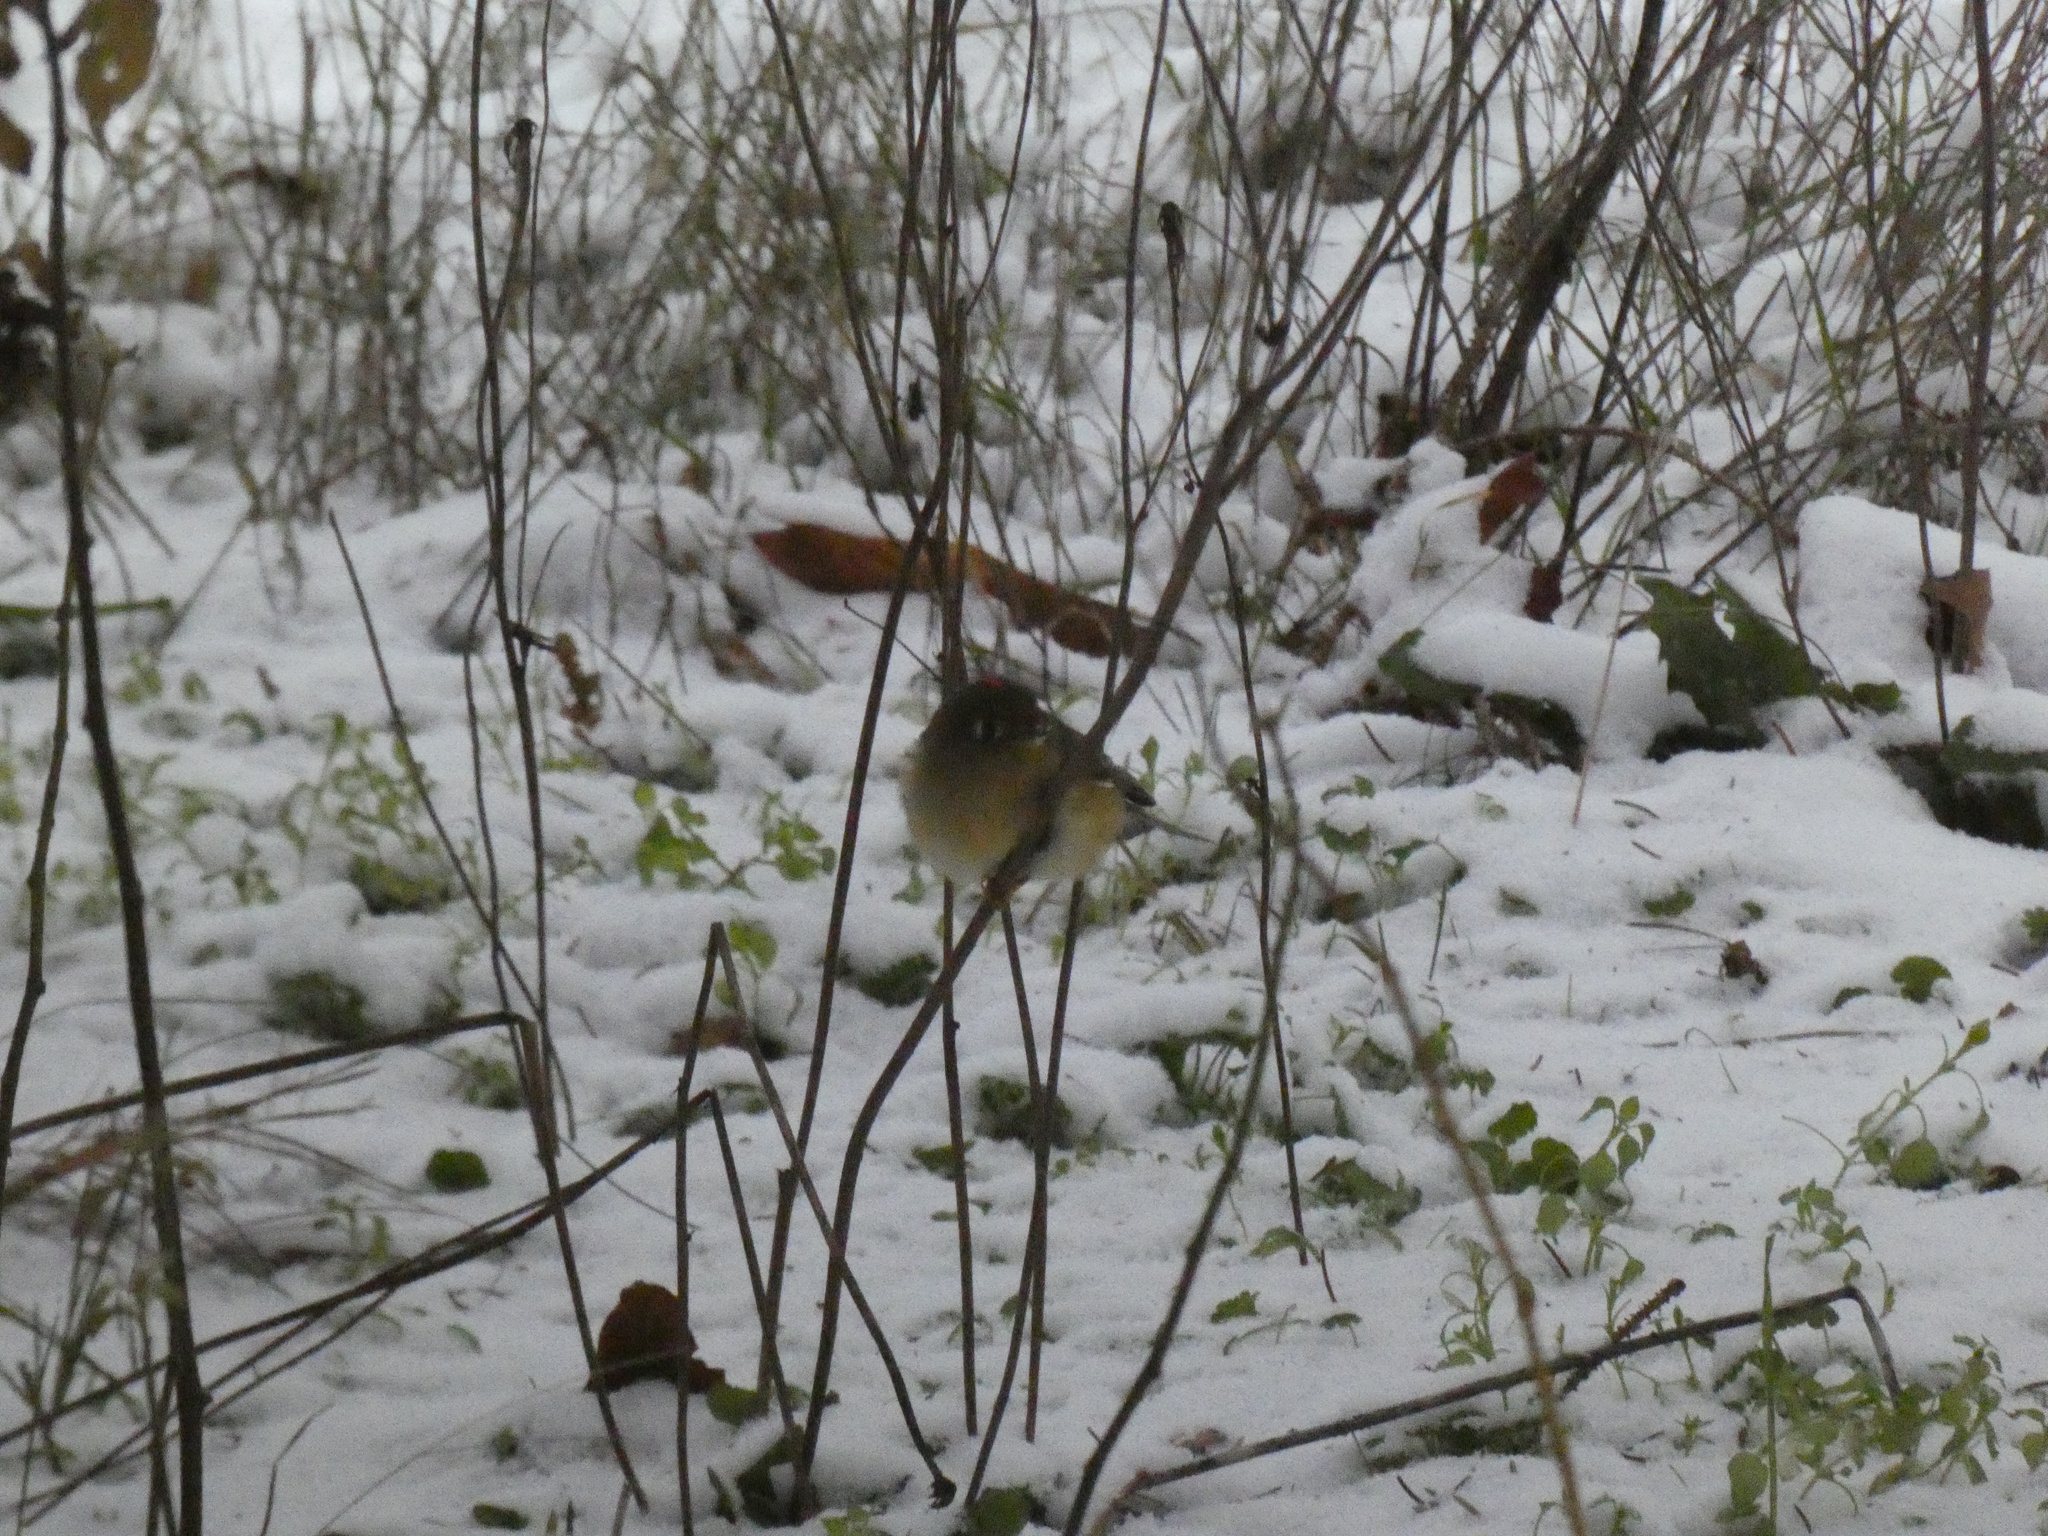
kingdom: Animalia
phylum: Chordata
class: Aves
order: Passeriformes
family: Regulidae
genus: Regulus
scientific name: Regulus calendula
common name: Ruby-crowned kinglet
